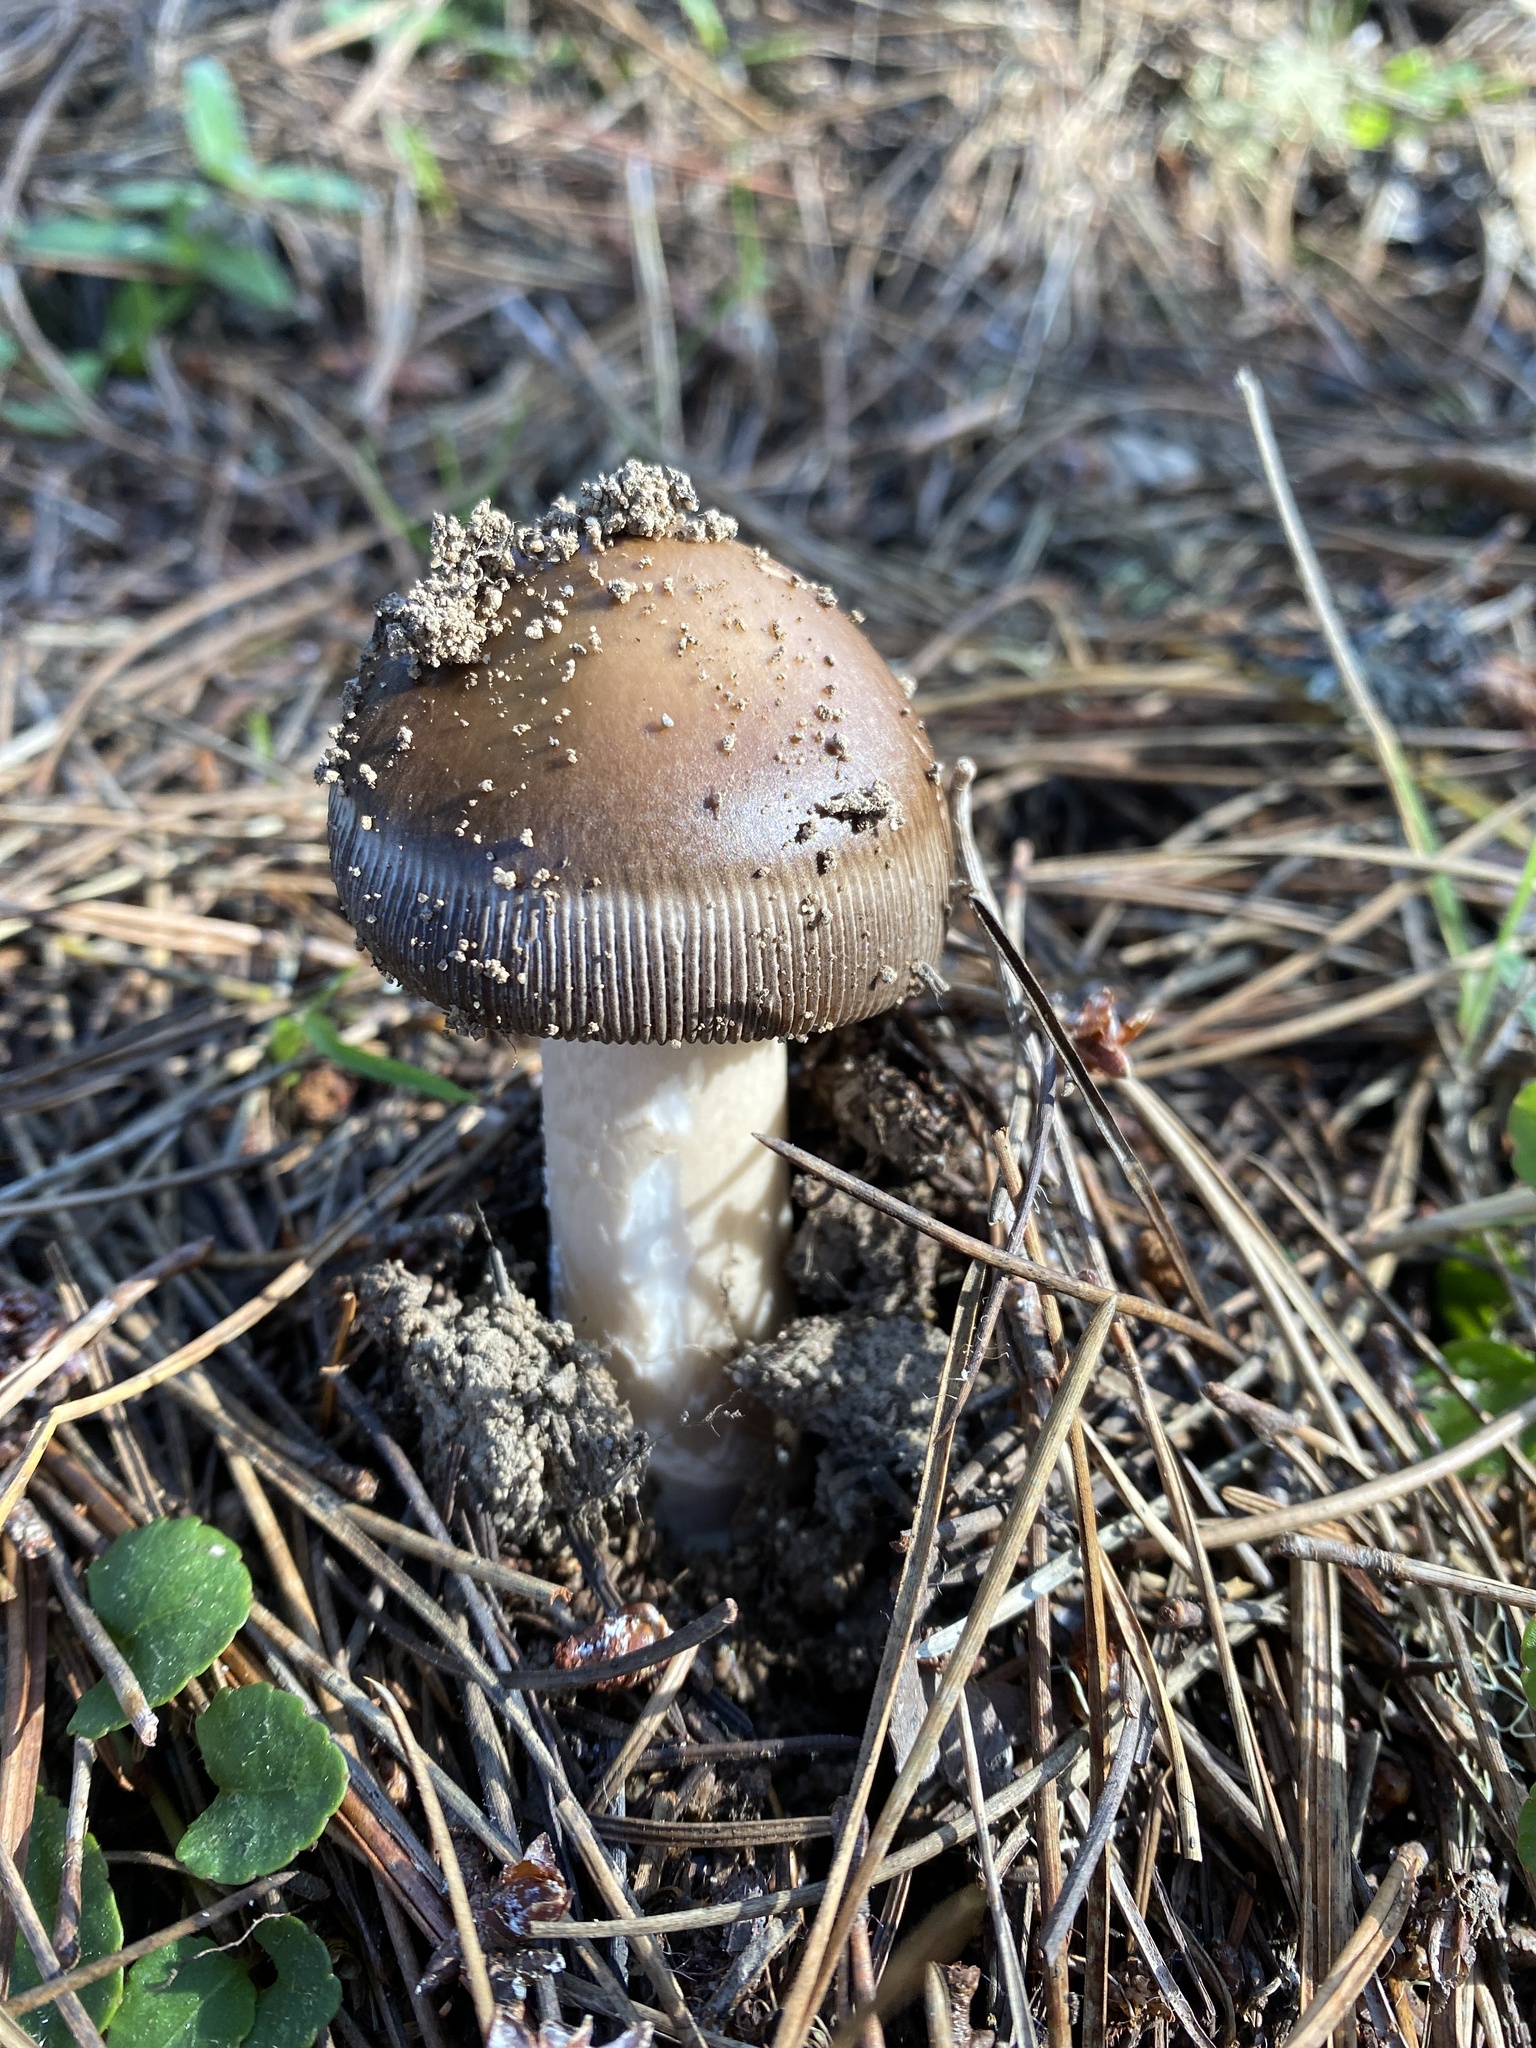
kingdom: Fungi
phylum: Basidiomycota
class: Agaricomycetes
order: Agaricales
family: Amanitaceae
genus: Amanita
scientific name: Amanita pachycolea
